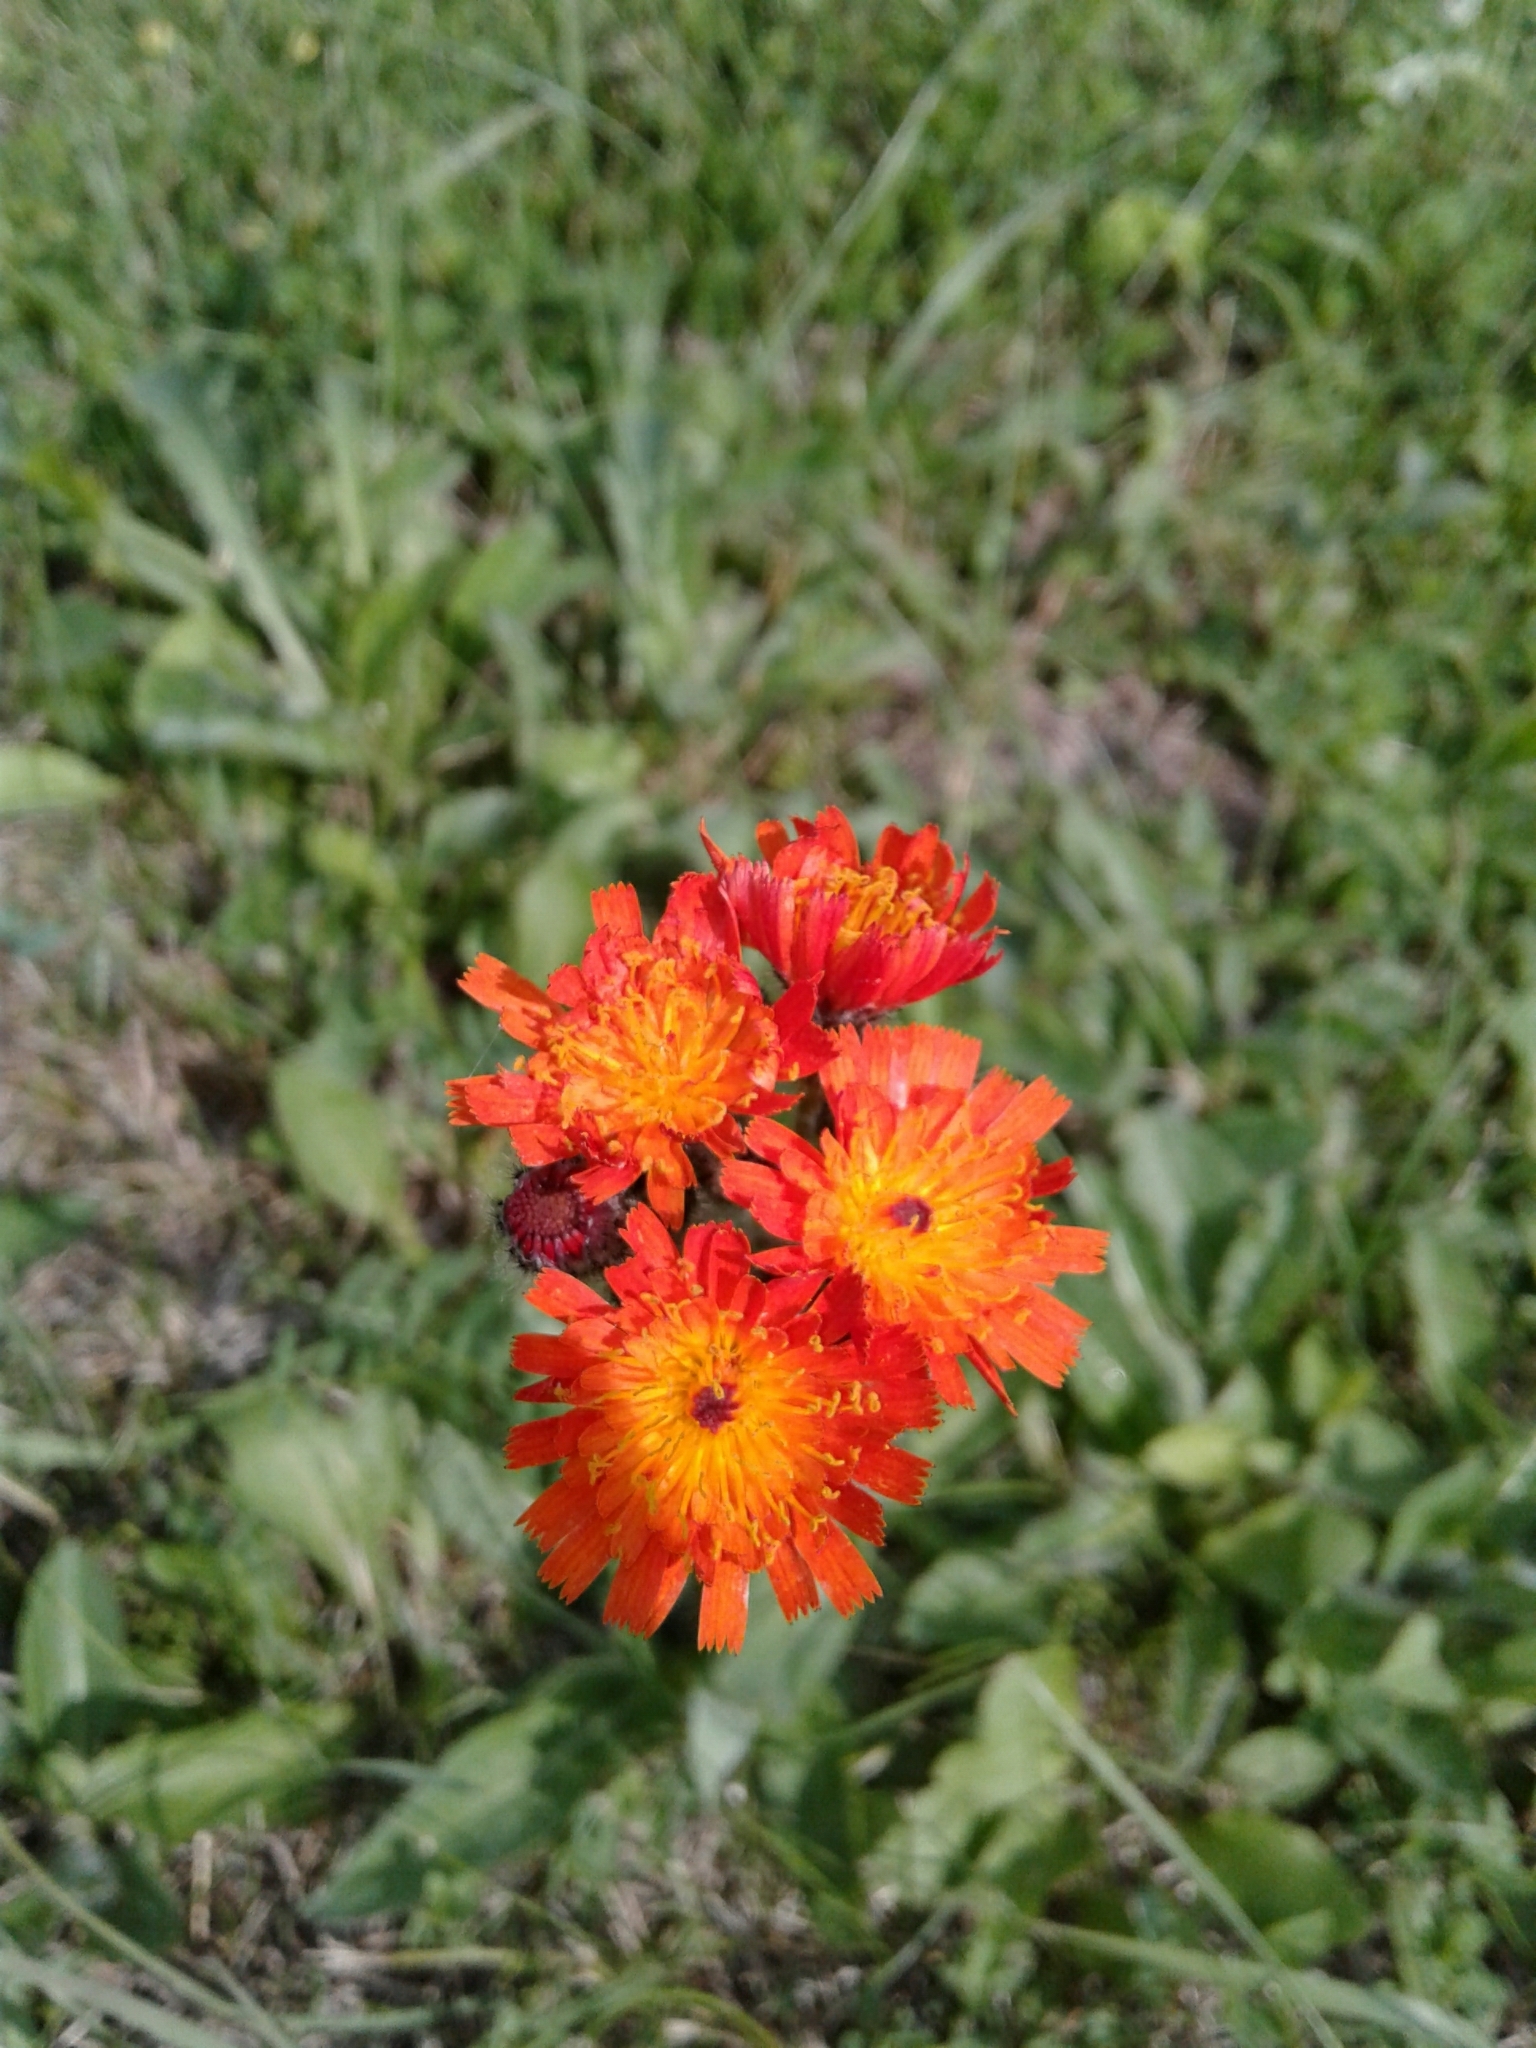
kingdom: Plantae
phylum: Tracheophyta
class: Magnoliopsida
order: Asterales
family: Asteraceae
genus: Pilosella
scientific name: Pilosella aurantiaca
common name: Fox-and-cubs
